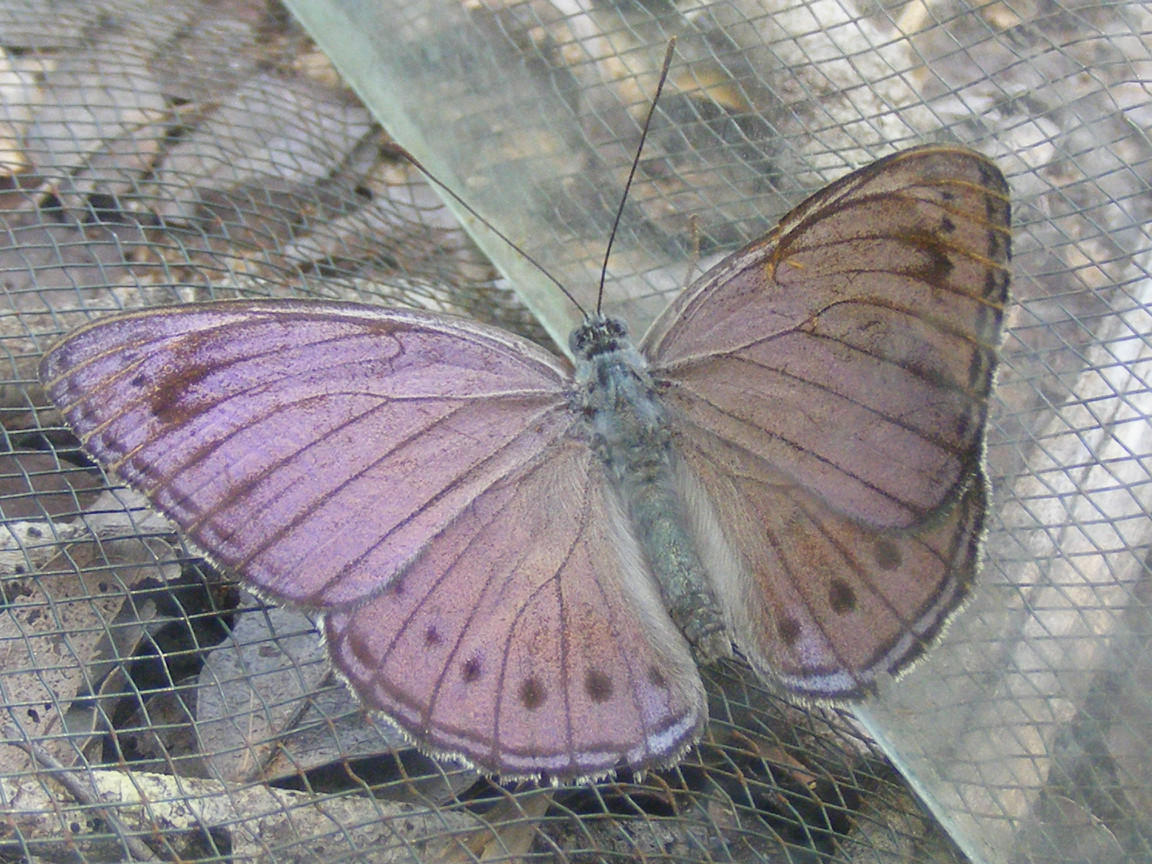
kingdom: Animalia
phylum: Arthropoda
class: Insecta
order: Lepidoptera
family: Nymphalidae
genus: Asterope
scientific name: Asterope rosa
